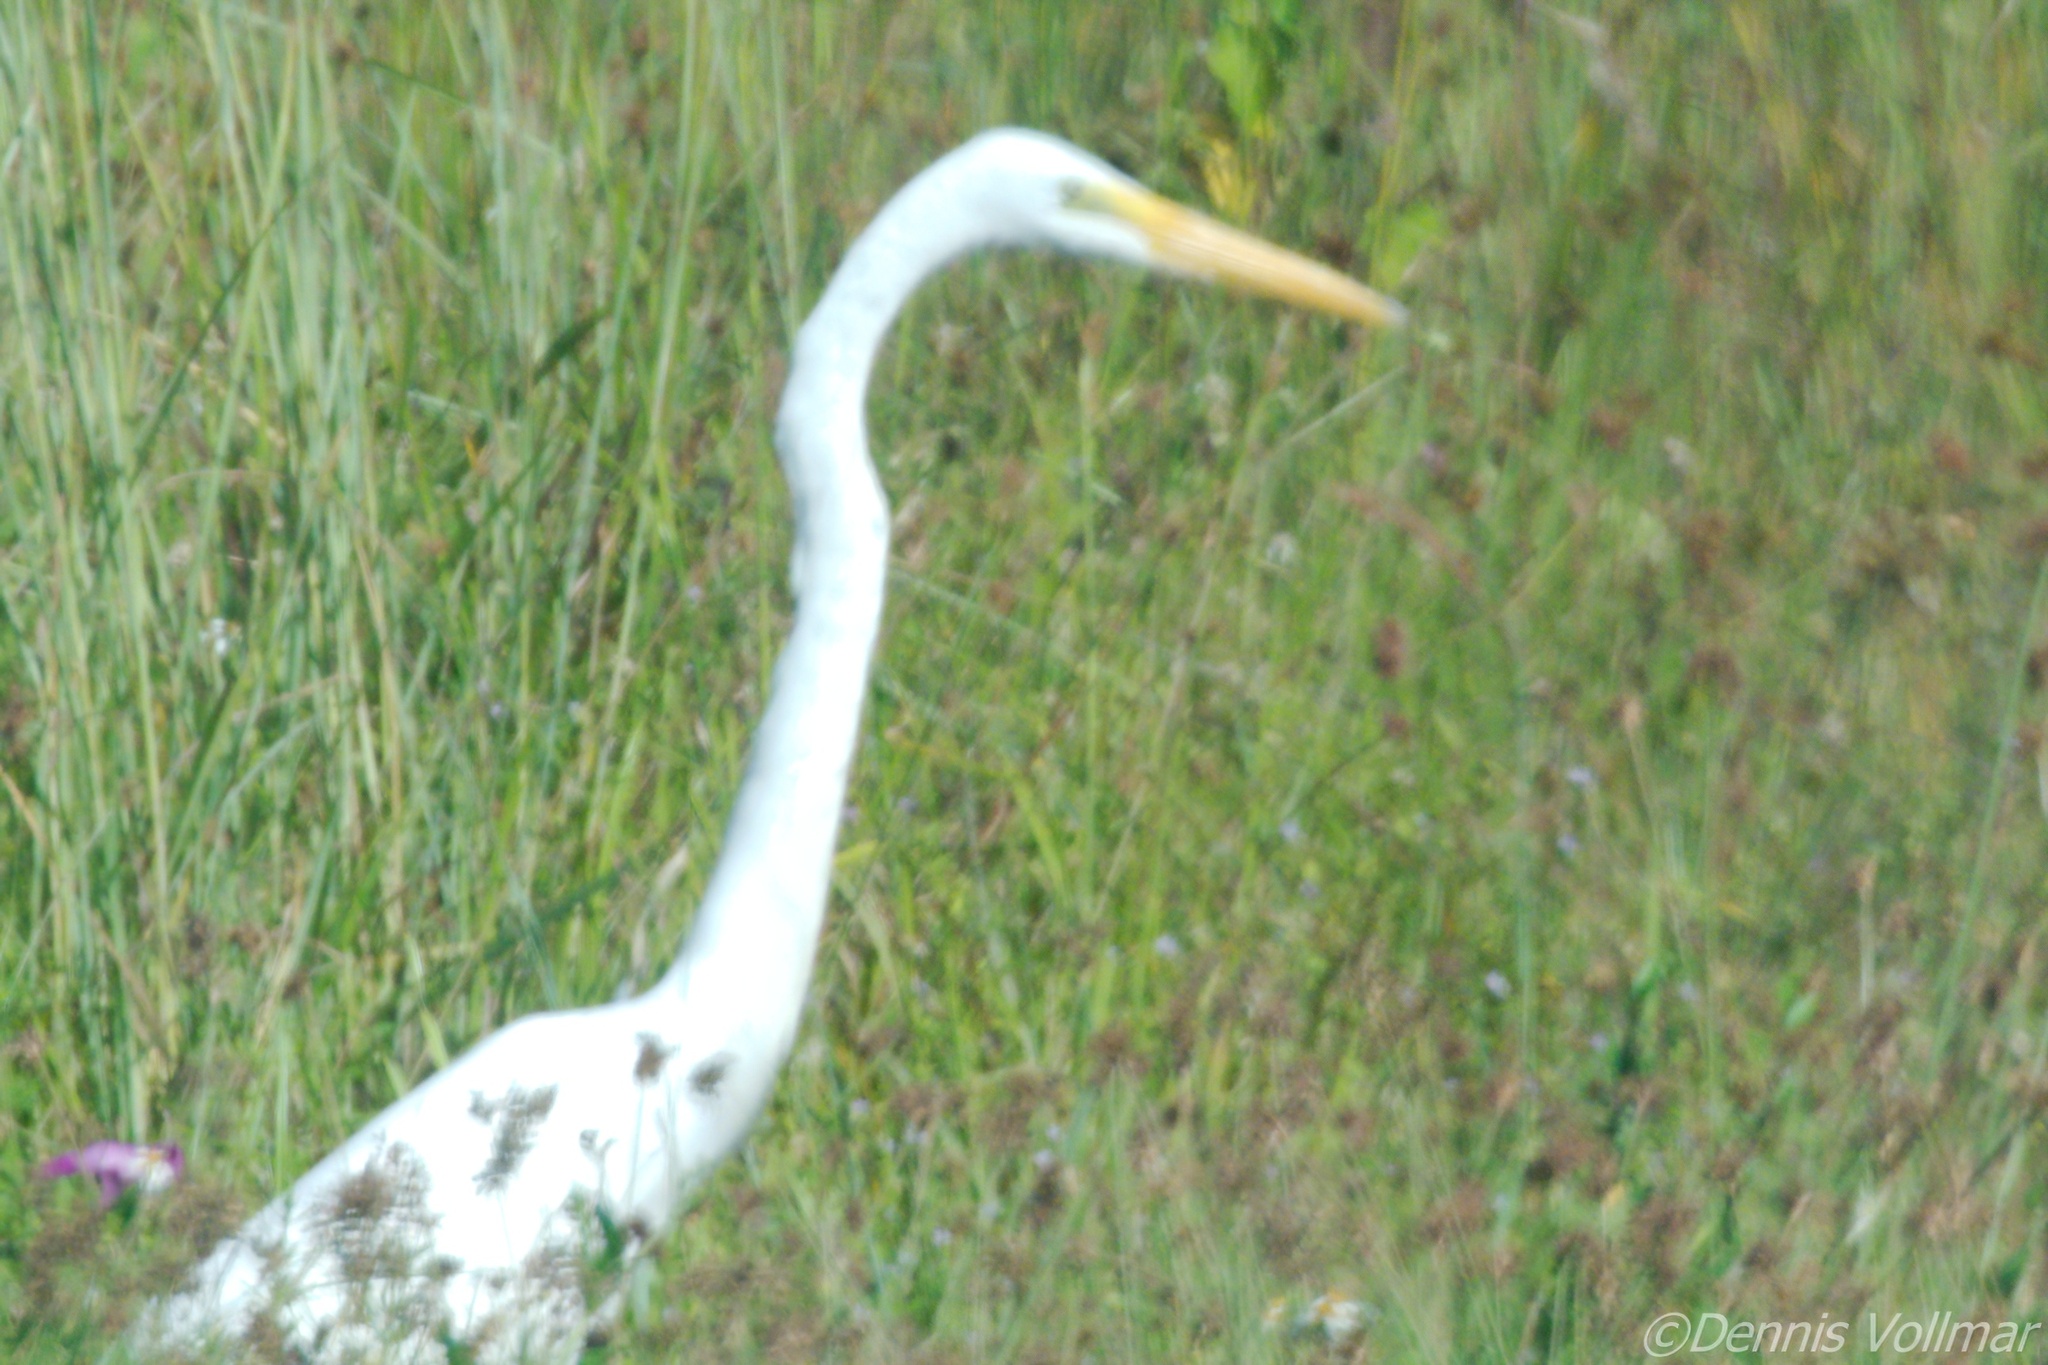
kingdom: Animalia
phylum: Chordata
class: Aves
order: Pelecaniformes
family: Ardeidae
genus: Ardea
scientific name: Ardea alba
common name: Great egret
